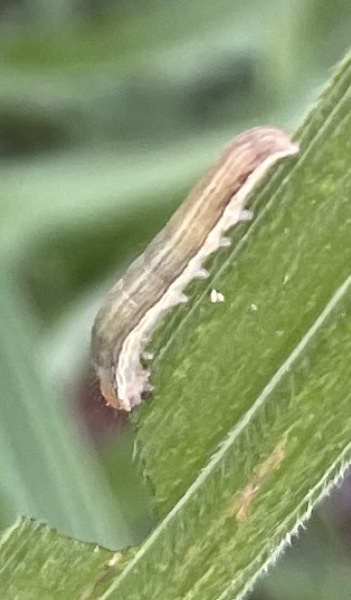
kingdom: Animalia
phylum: Arthropoda
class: Insecta
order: Lepidoptera
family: Noctuidae
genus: Spodoptera
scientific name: Spodoptera ornithogalli
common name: Yellow-striped armyworm
